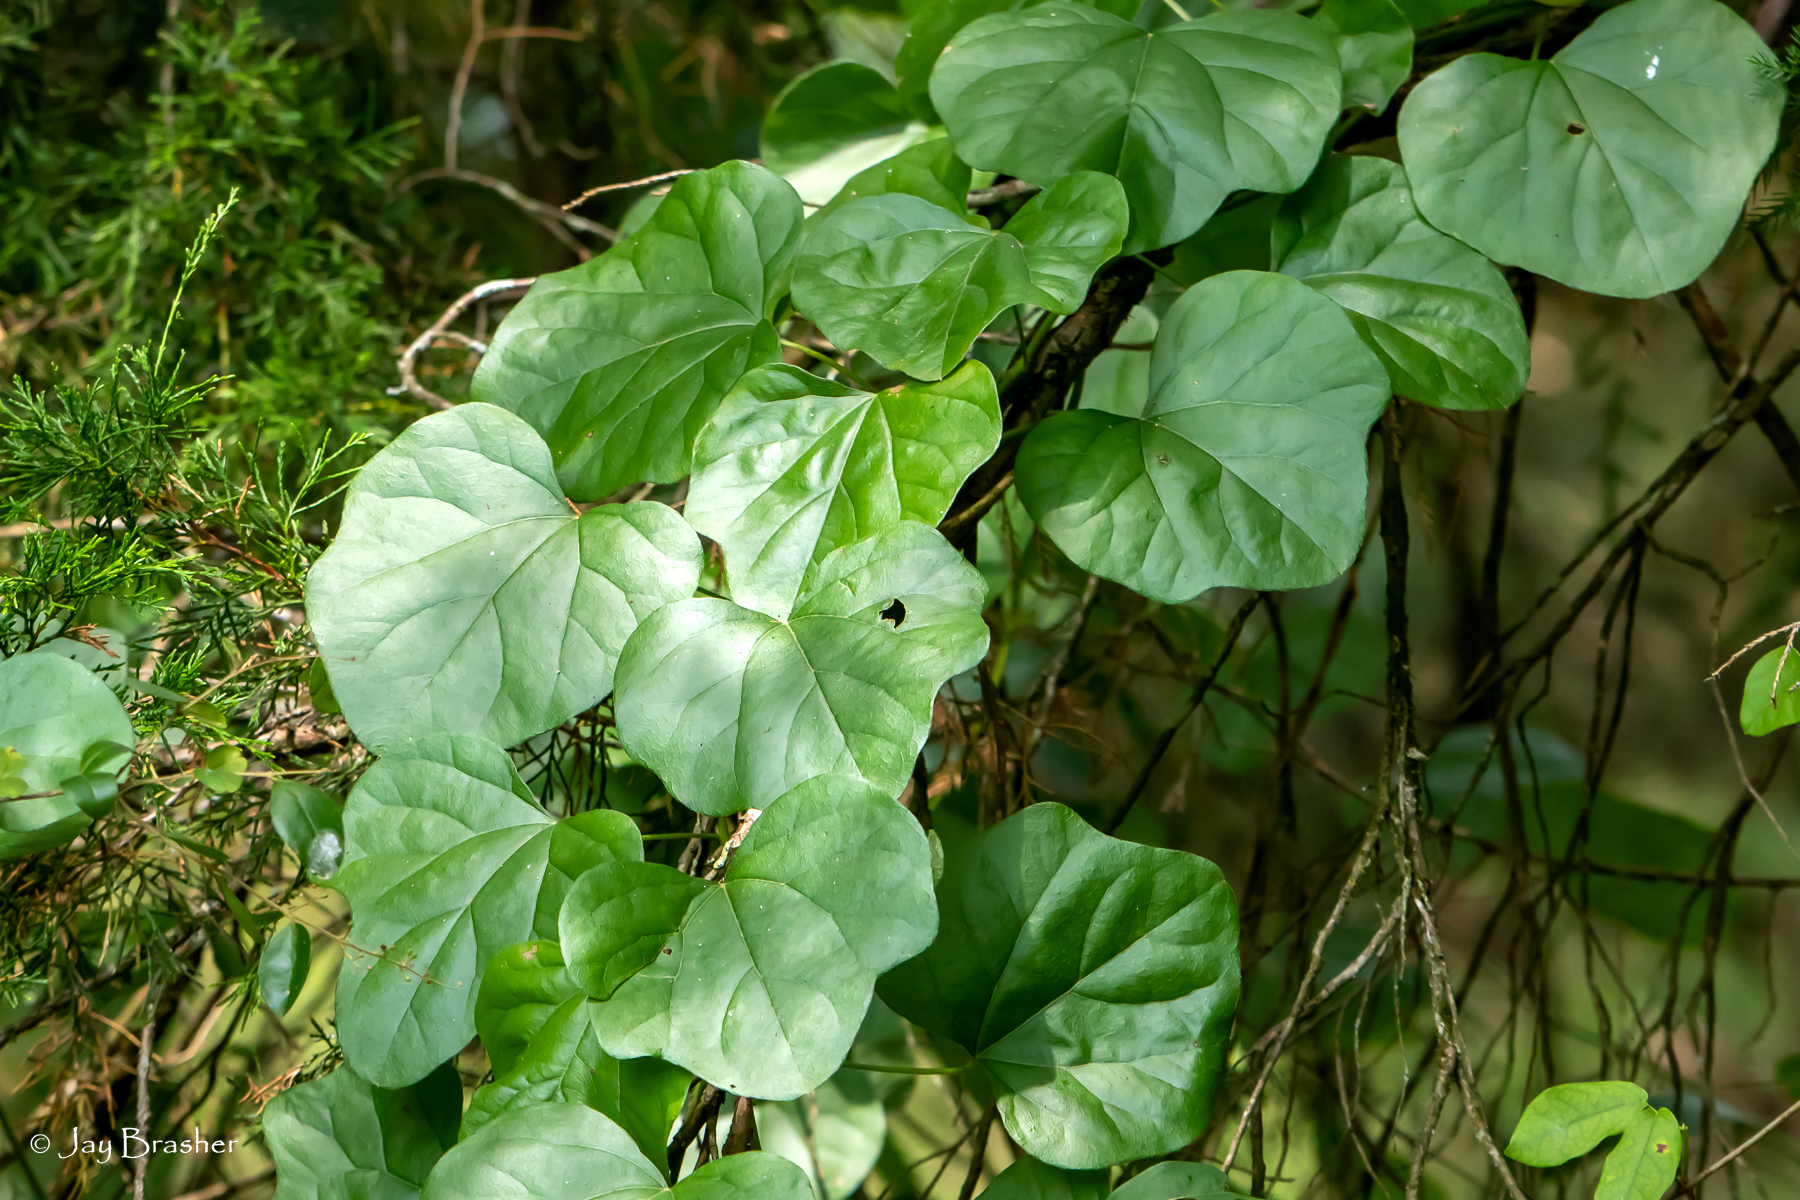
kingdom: Plantae
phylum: Tracheophyta
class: Magnoliopsida
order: Ranunculales
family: Menispermaceae
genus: Cocculus
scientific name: Cocculus carolinus
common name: Carolina moonseed
